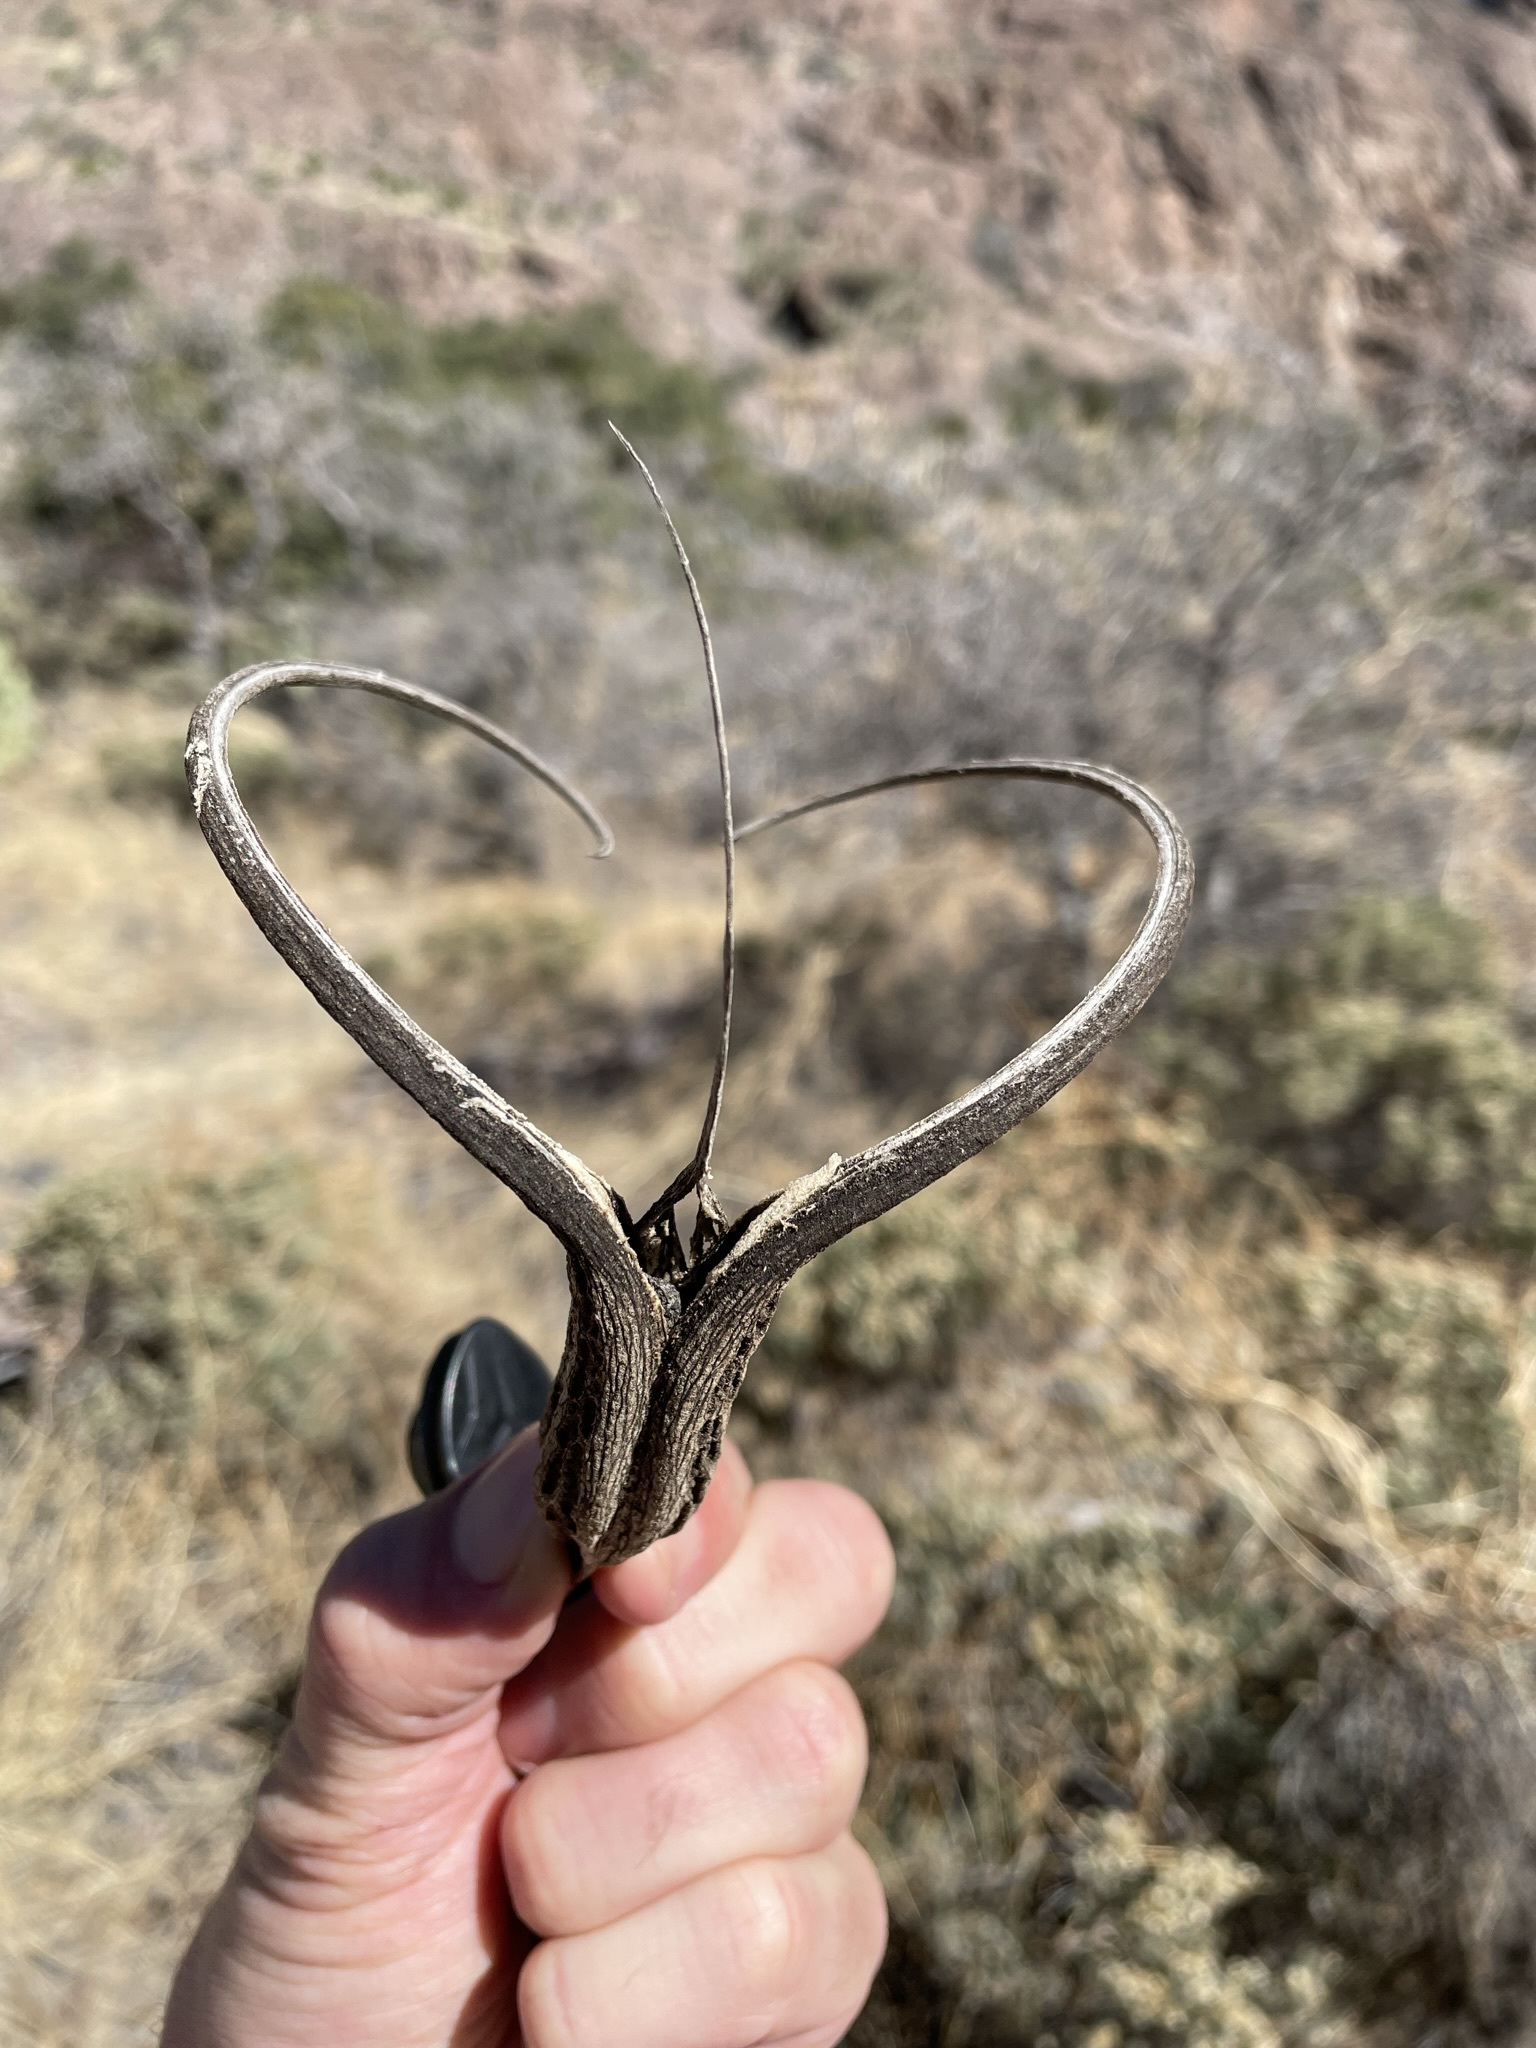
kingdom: Plantae
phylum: Tracheophyta
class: Magnoliopsida
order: Lamiales
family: Martyniaceae
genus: Proboscidea
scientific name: Proboscidea parviflora
